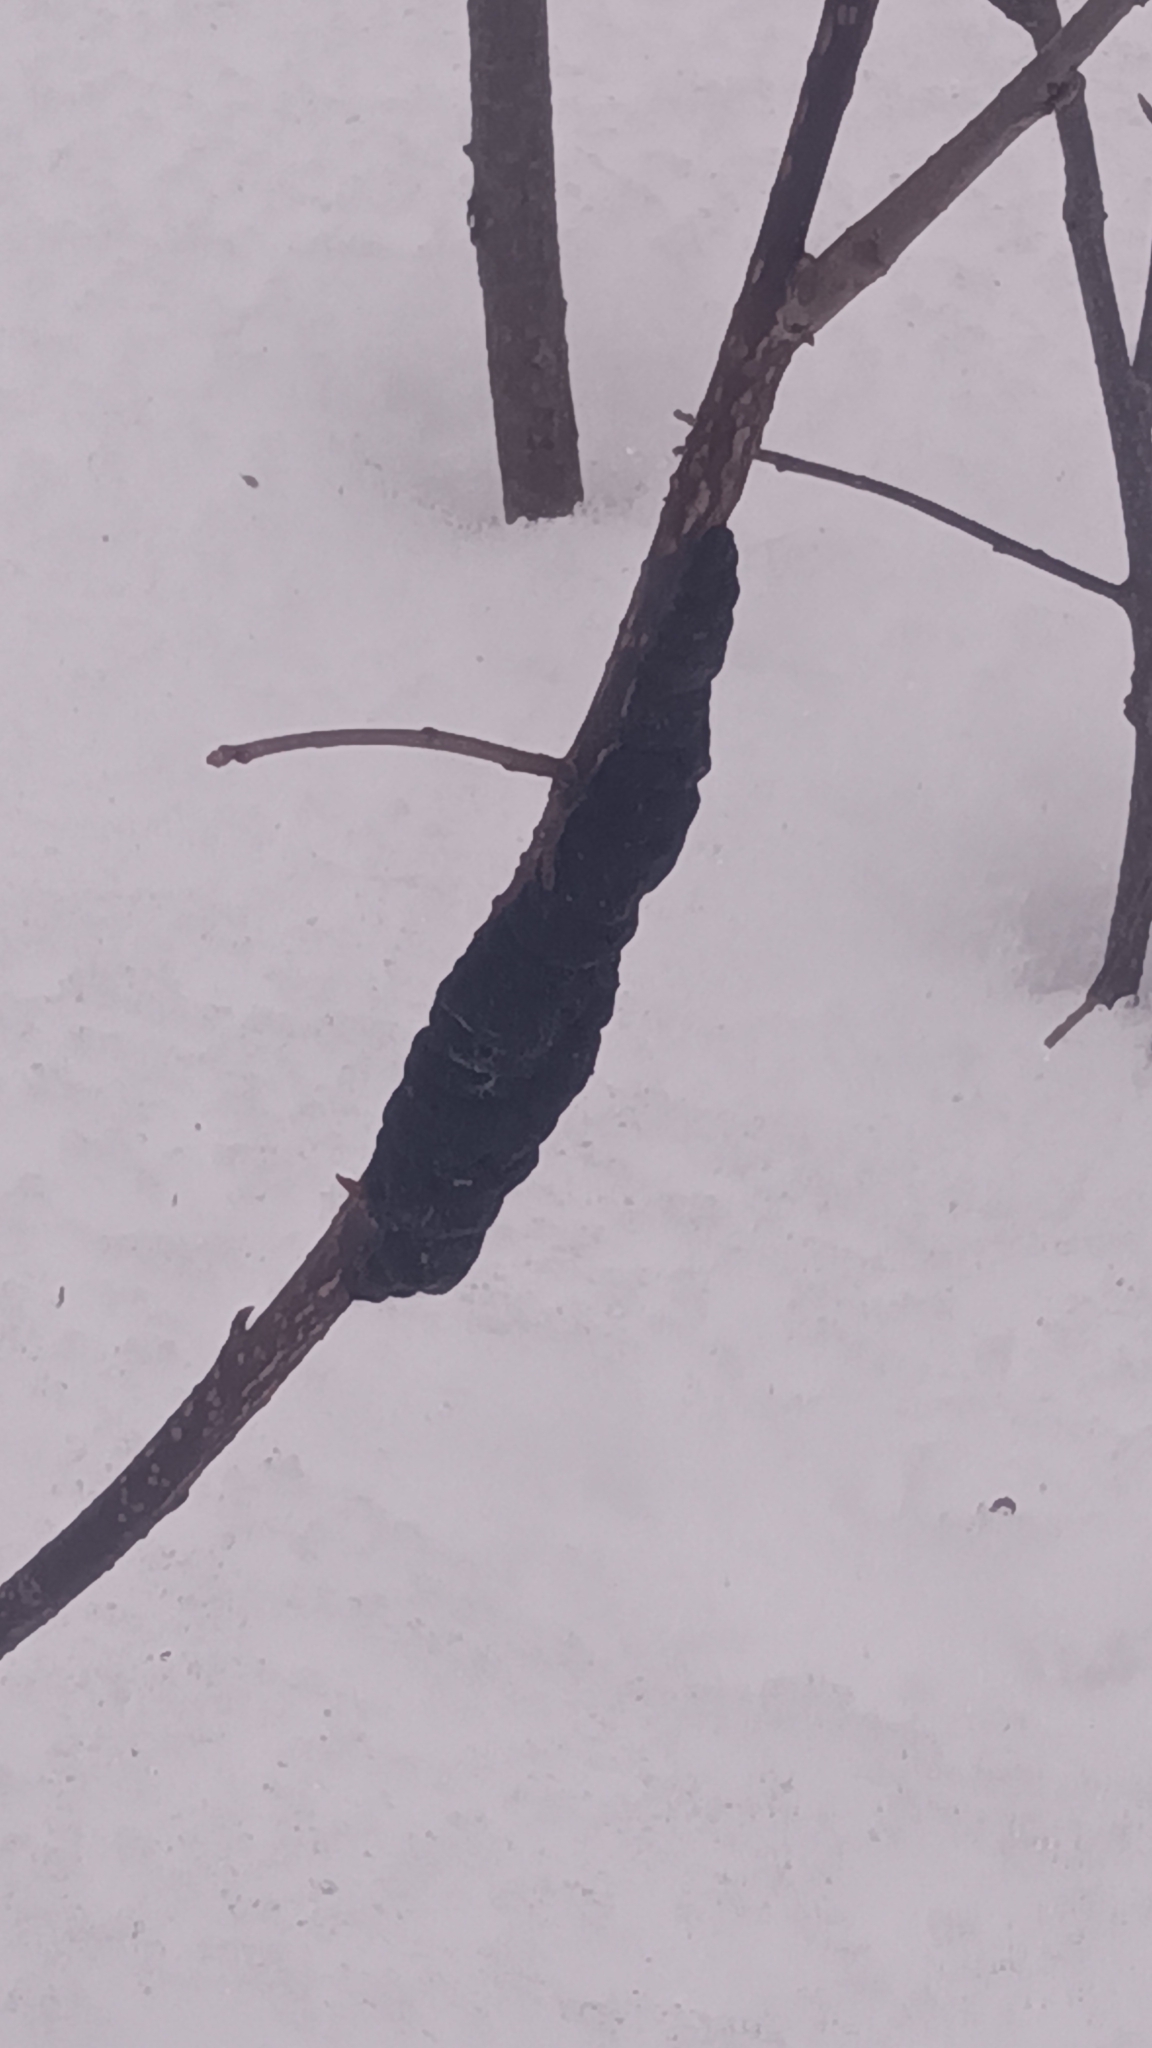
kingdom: Fungi
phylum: Ascomycota
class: Dothideomycetes
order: Venturiales
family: Venturiaceae
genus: Apiosporina
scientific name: Apiosporina morbosa
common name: Black knot
